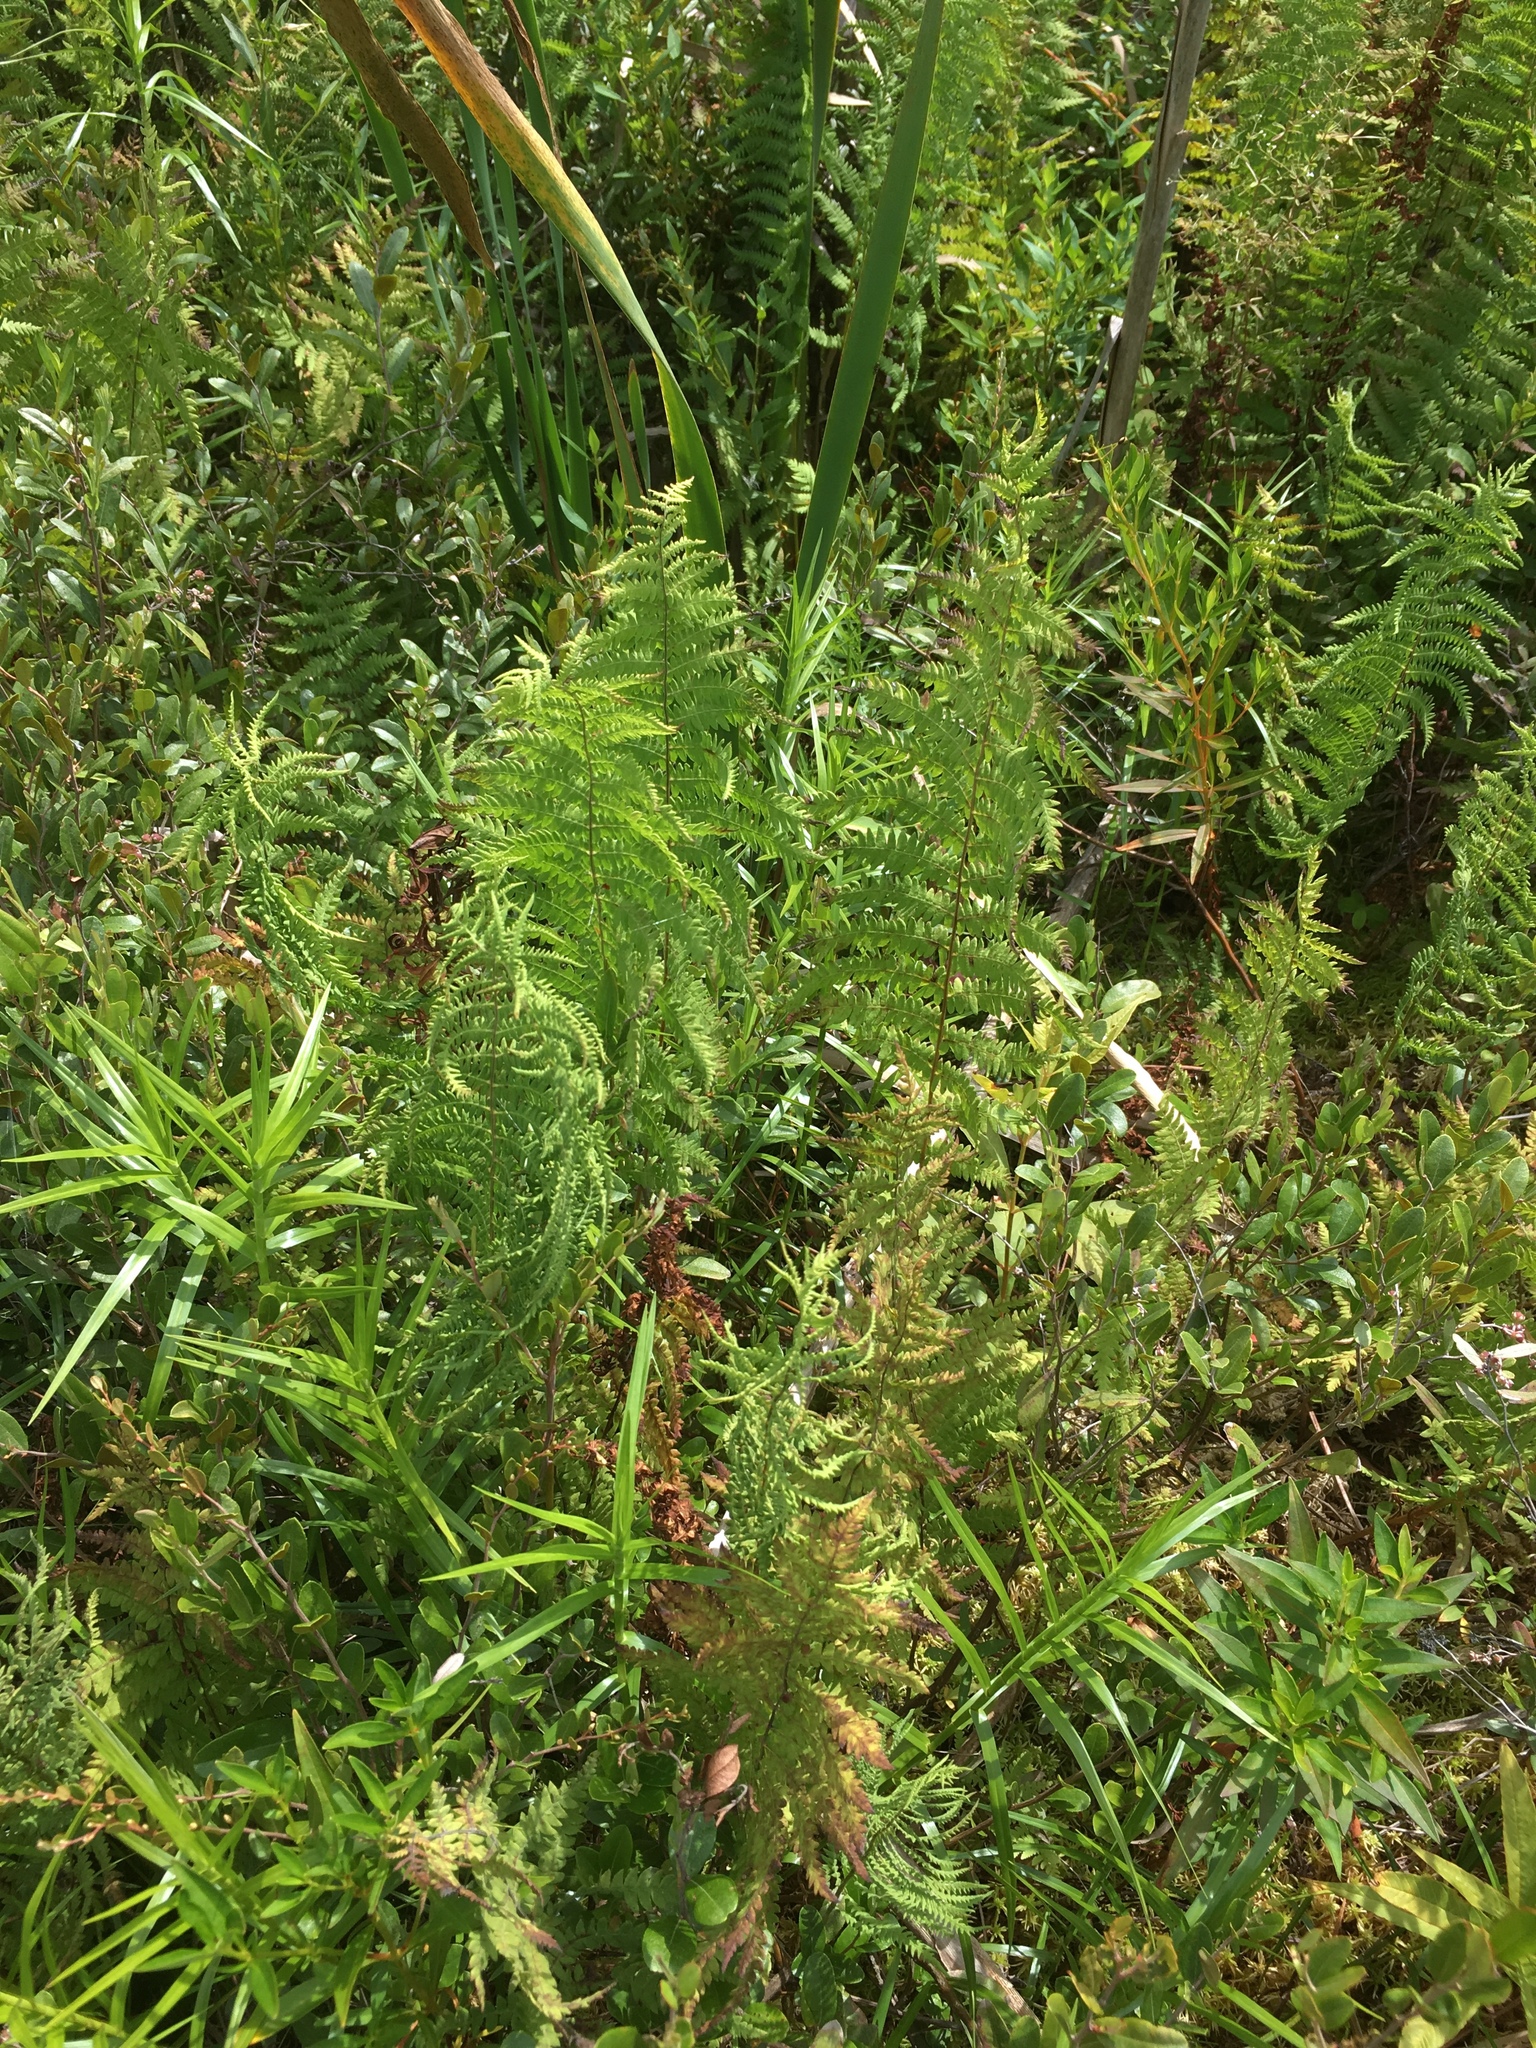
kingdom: Plantae
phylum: Tracheophyta
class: Polypodiopsida
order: Polypodiales
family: Thelypteridaceae
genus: Thelypteris
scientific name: Thelypteris palustris
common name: Marsh fern
